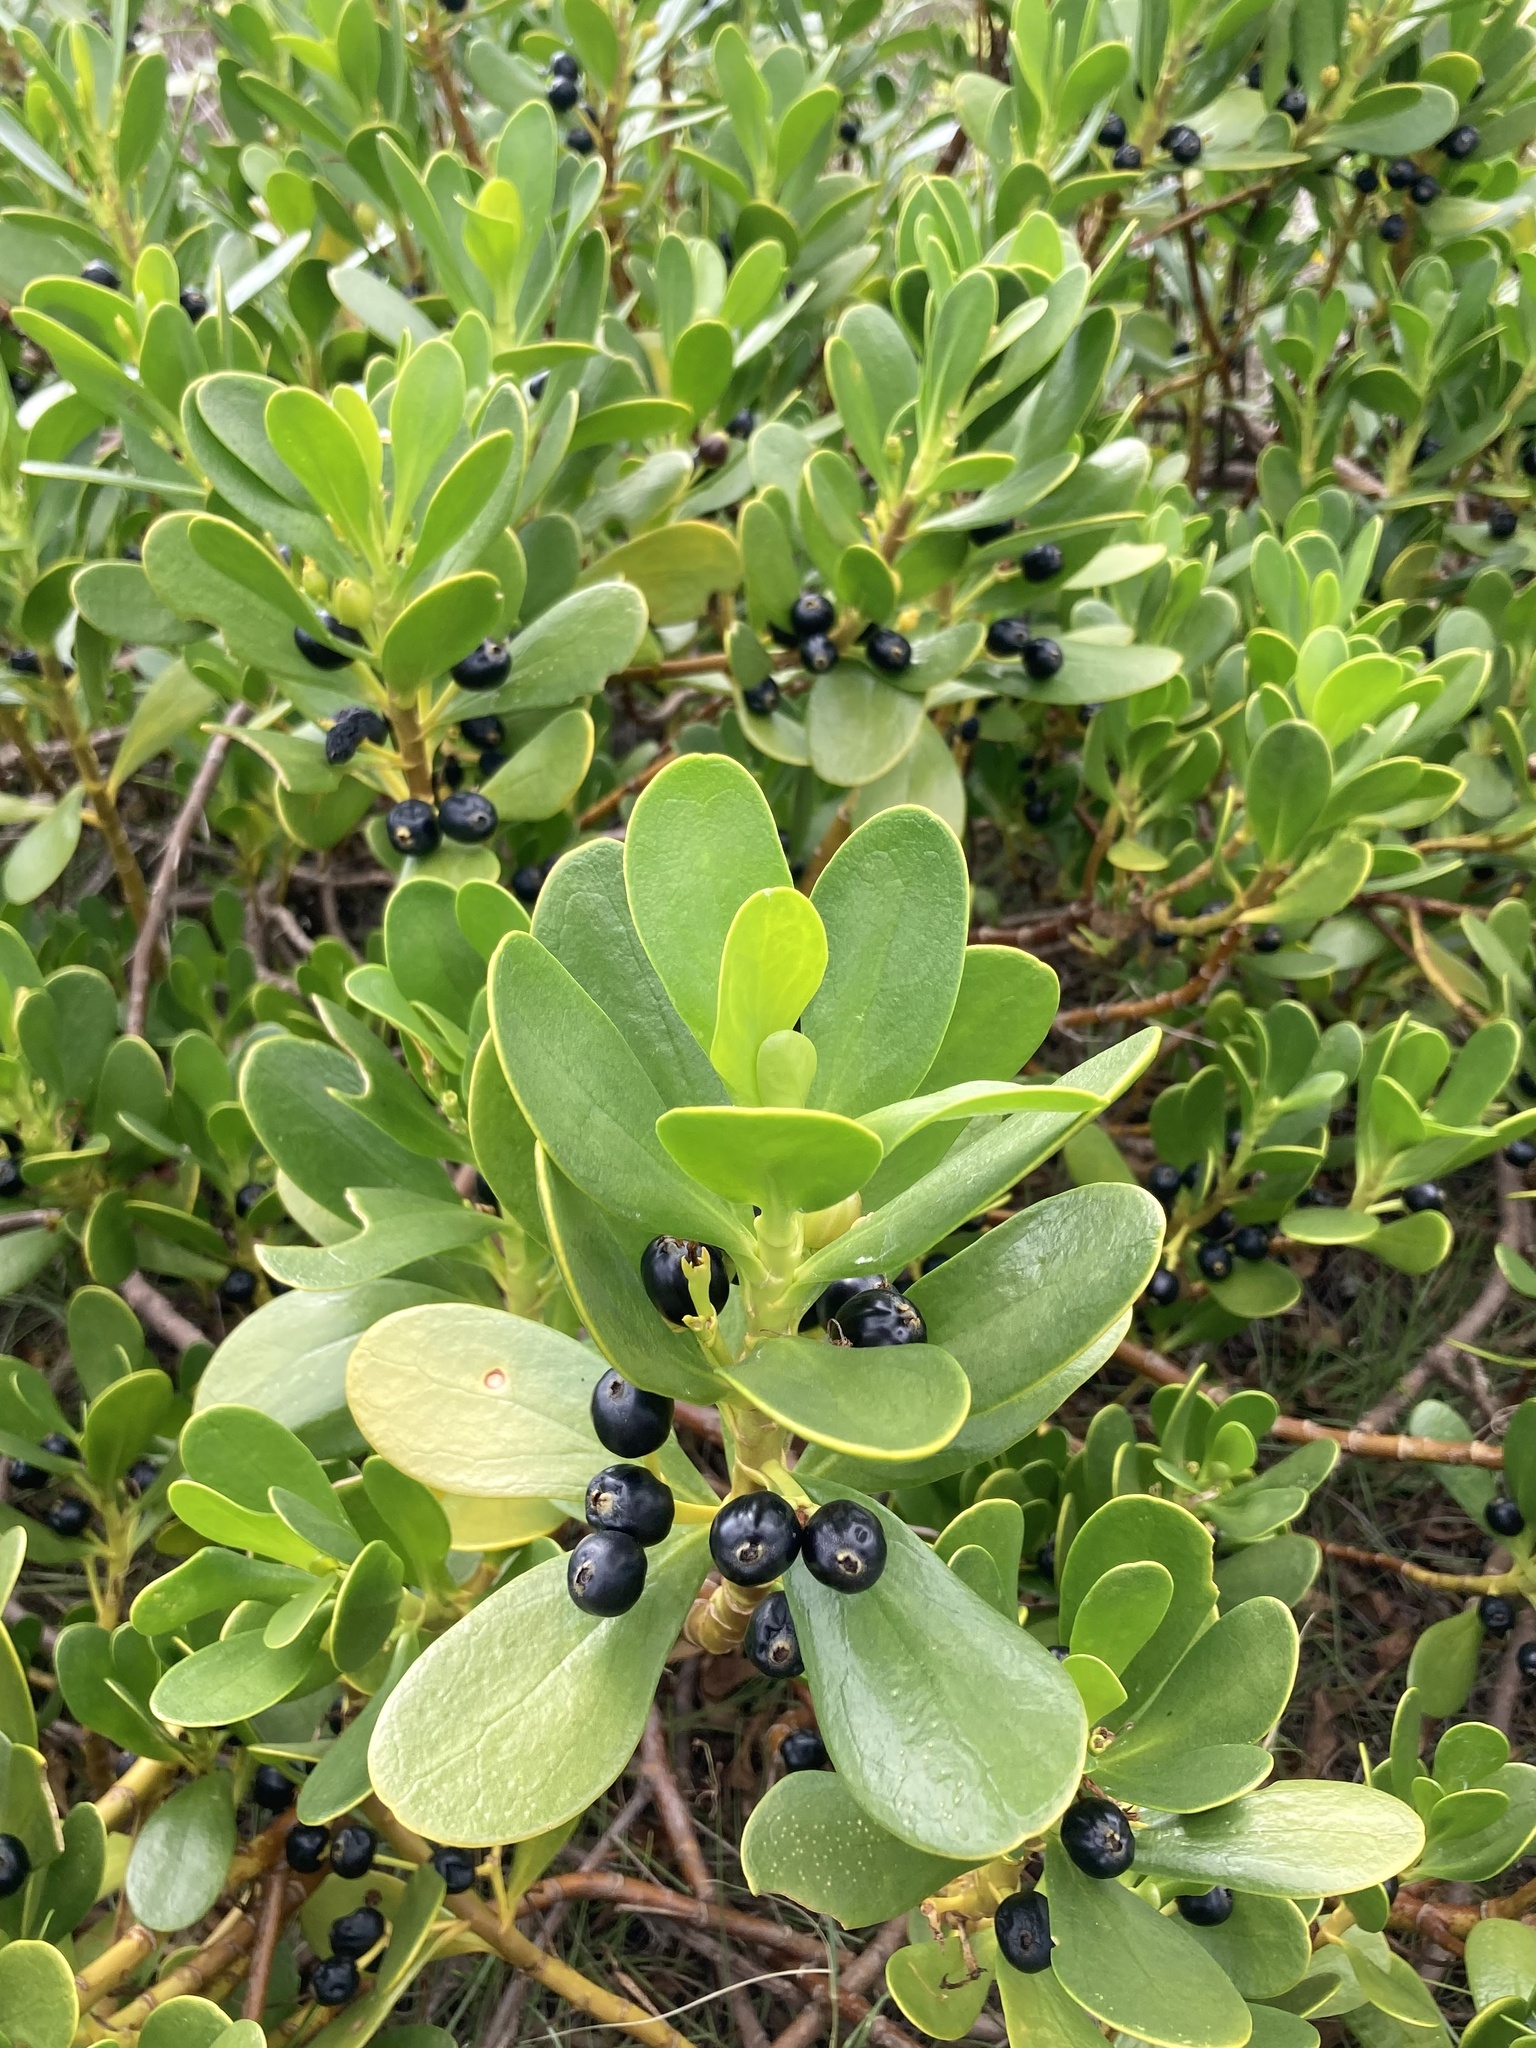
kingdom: Plantae
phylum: Tracheophyta
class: Magnoliopsida
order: Asterales
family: Goodeniaceae
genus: Scaevola
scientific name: Scaevola plumieri
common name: Gull feed
